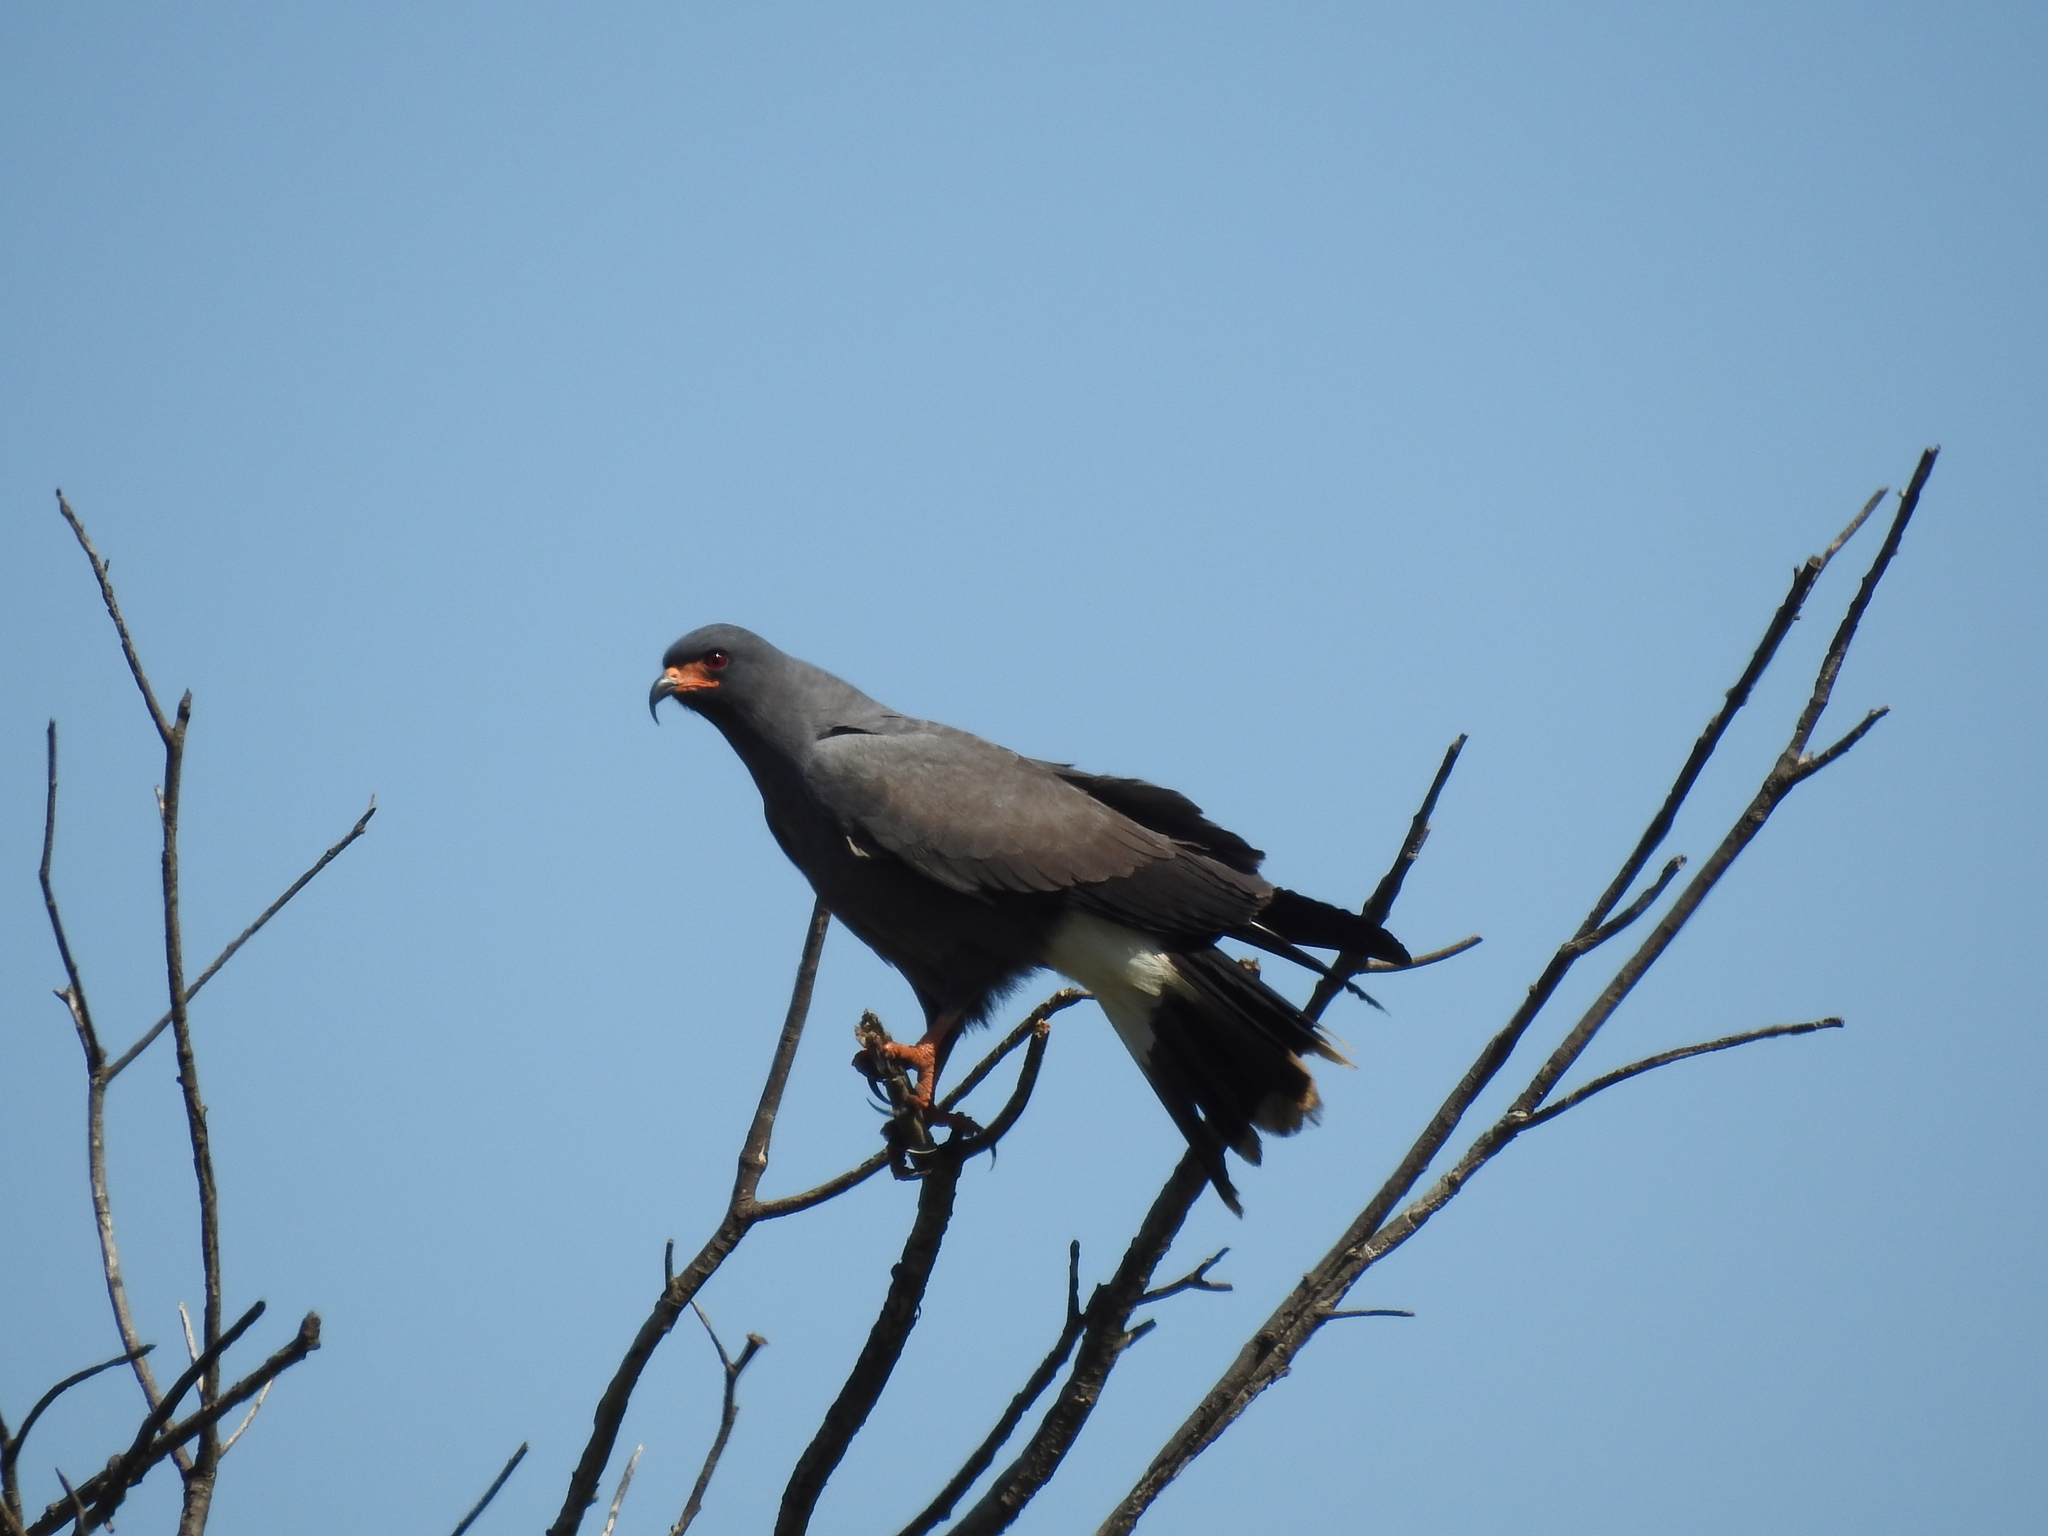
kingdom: Animalia
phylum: Chordata
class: Aves
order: Accipitriformes
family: Accipitridae
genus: Rostrhamus
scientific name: Rostrhamus sociabilis
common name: Snail kite
